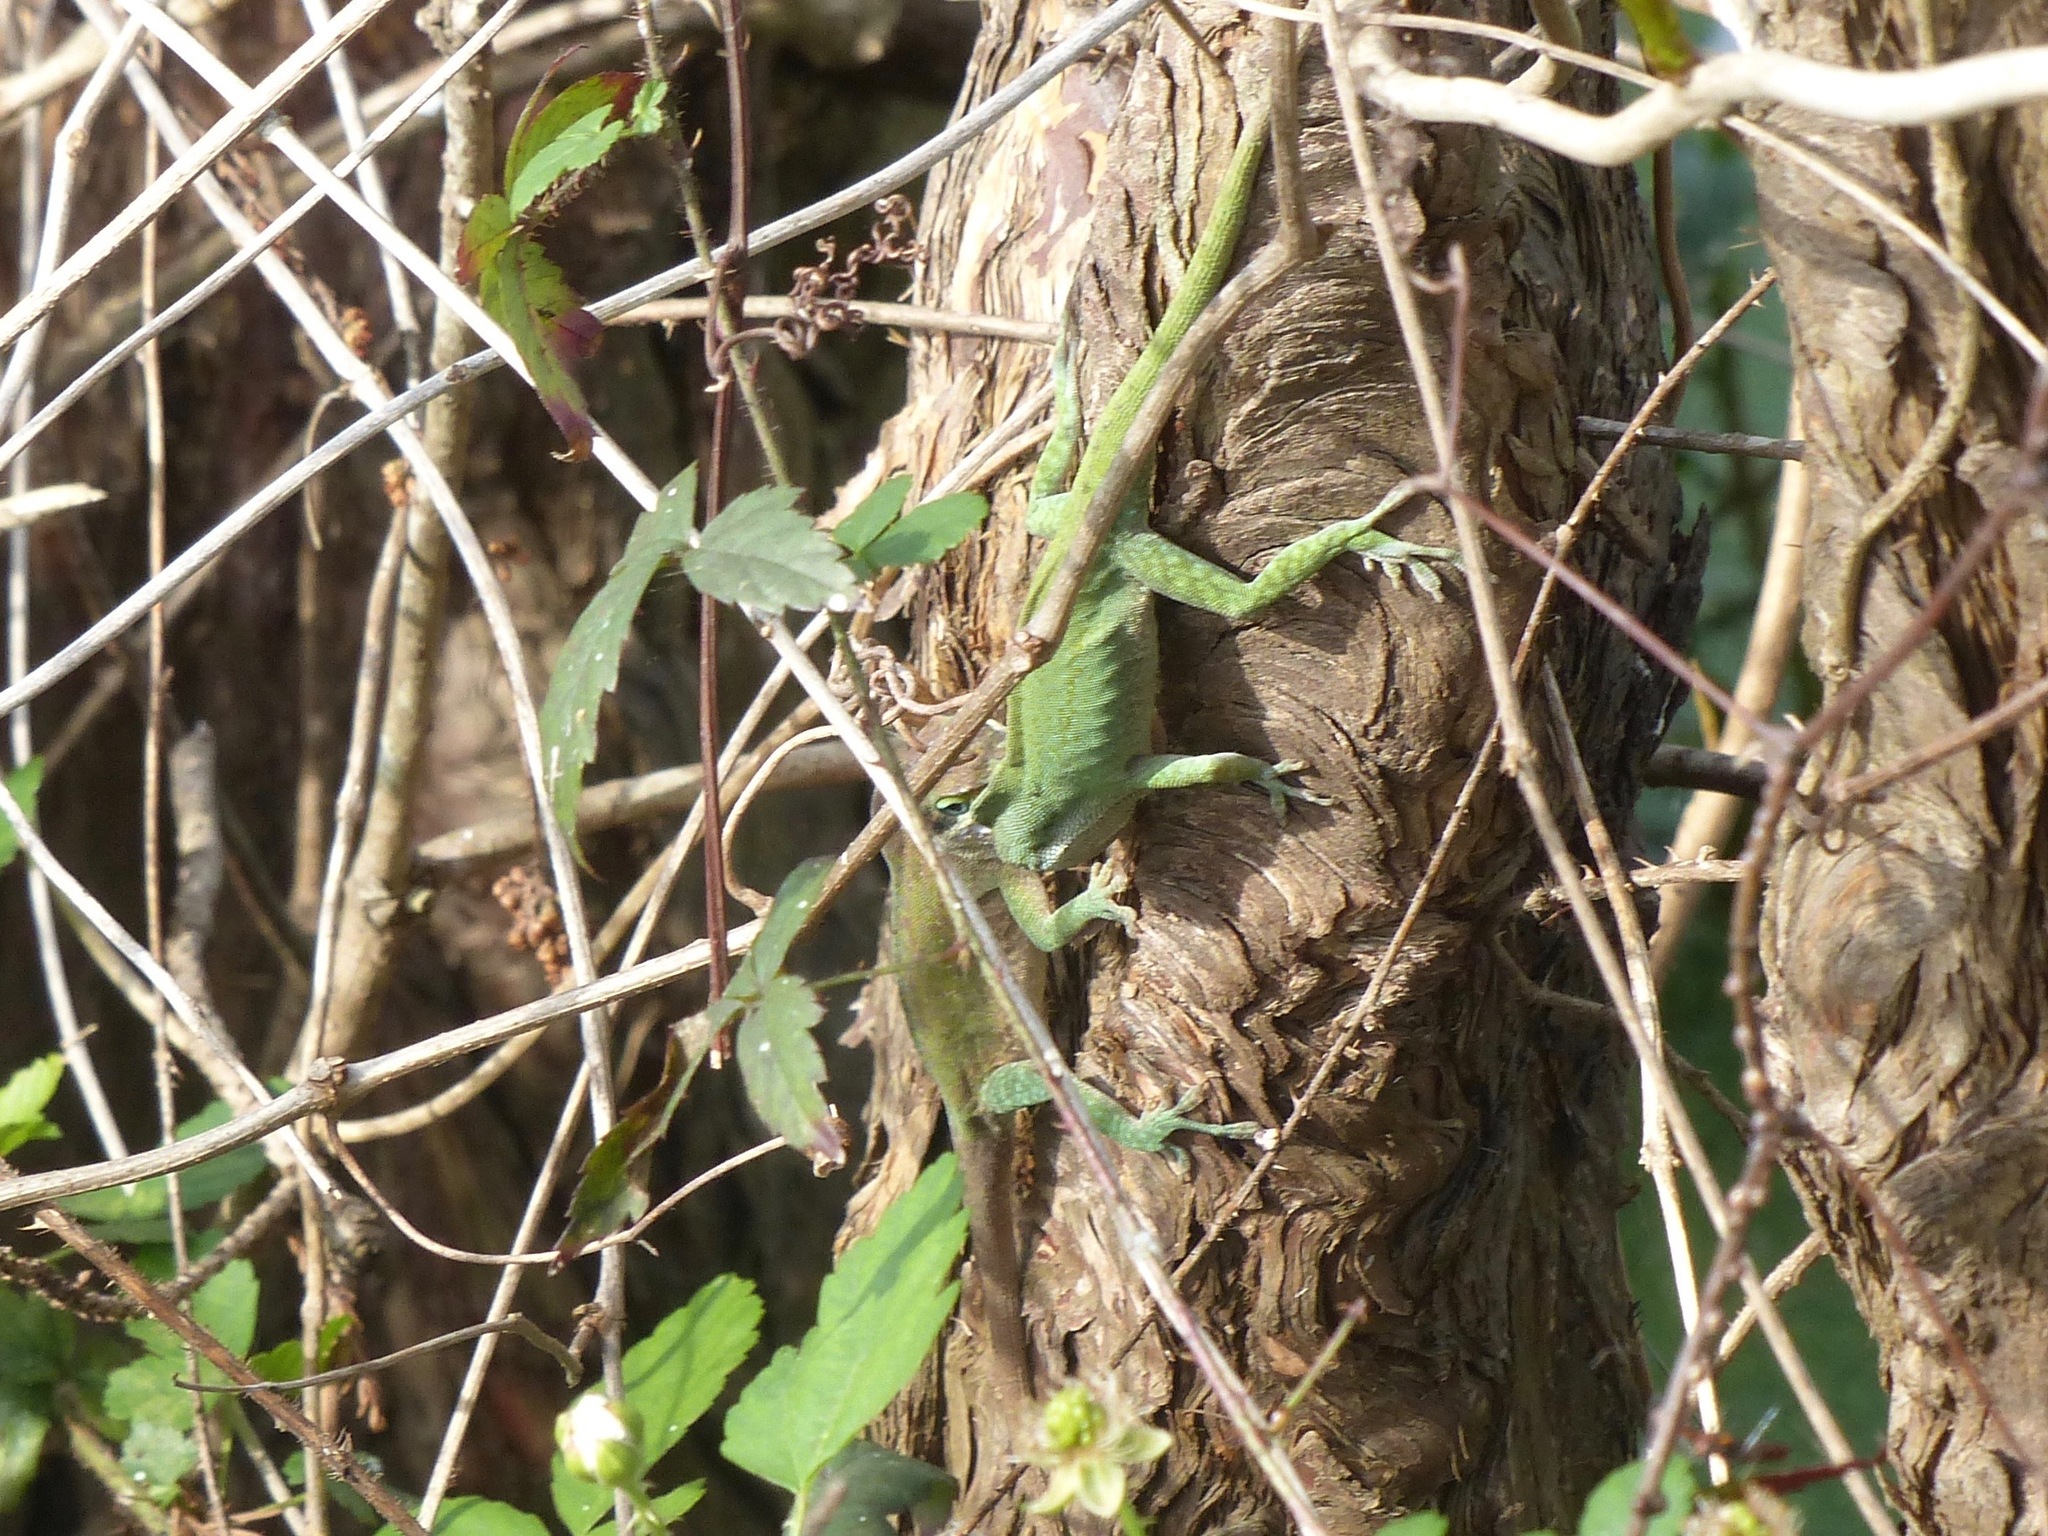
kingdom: Animalia
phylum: Chordata
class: Squamata
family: Dactyloidae
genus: Anolis
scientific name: Anolis carolinensis
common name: Green anole
